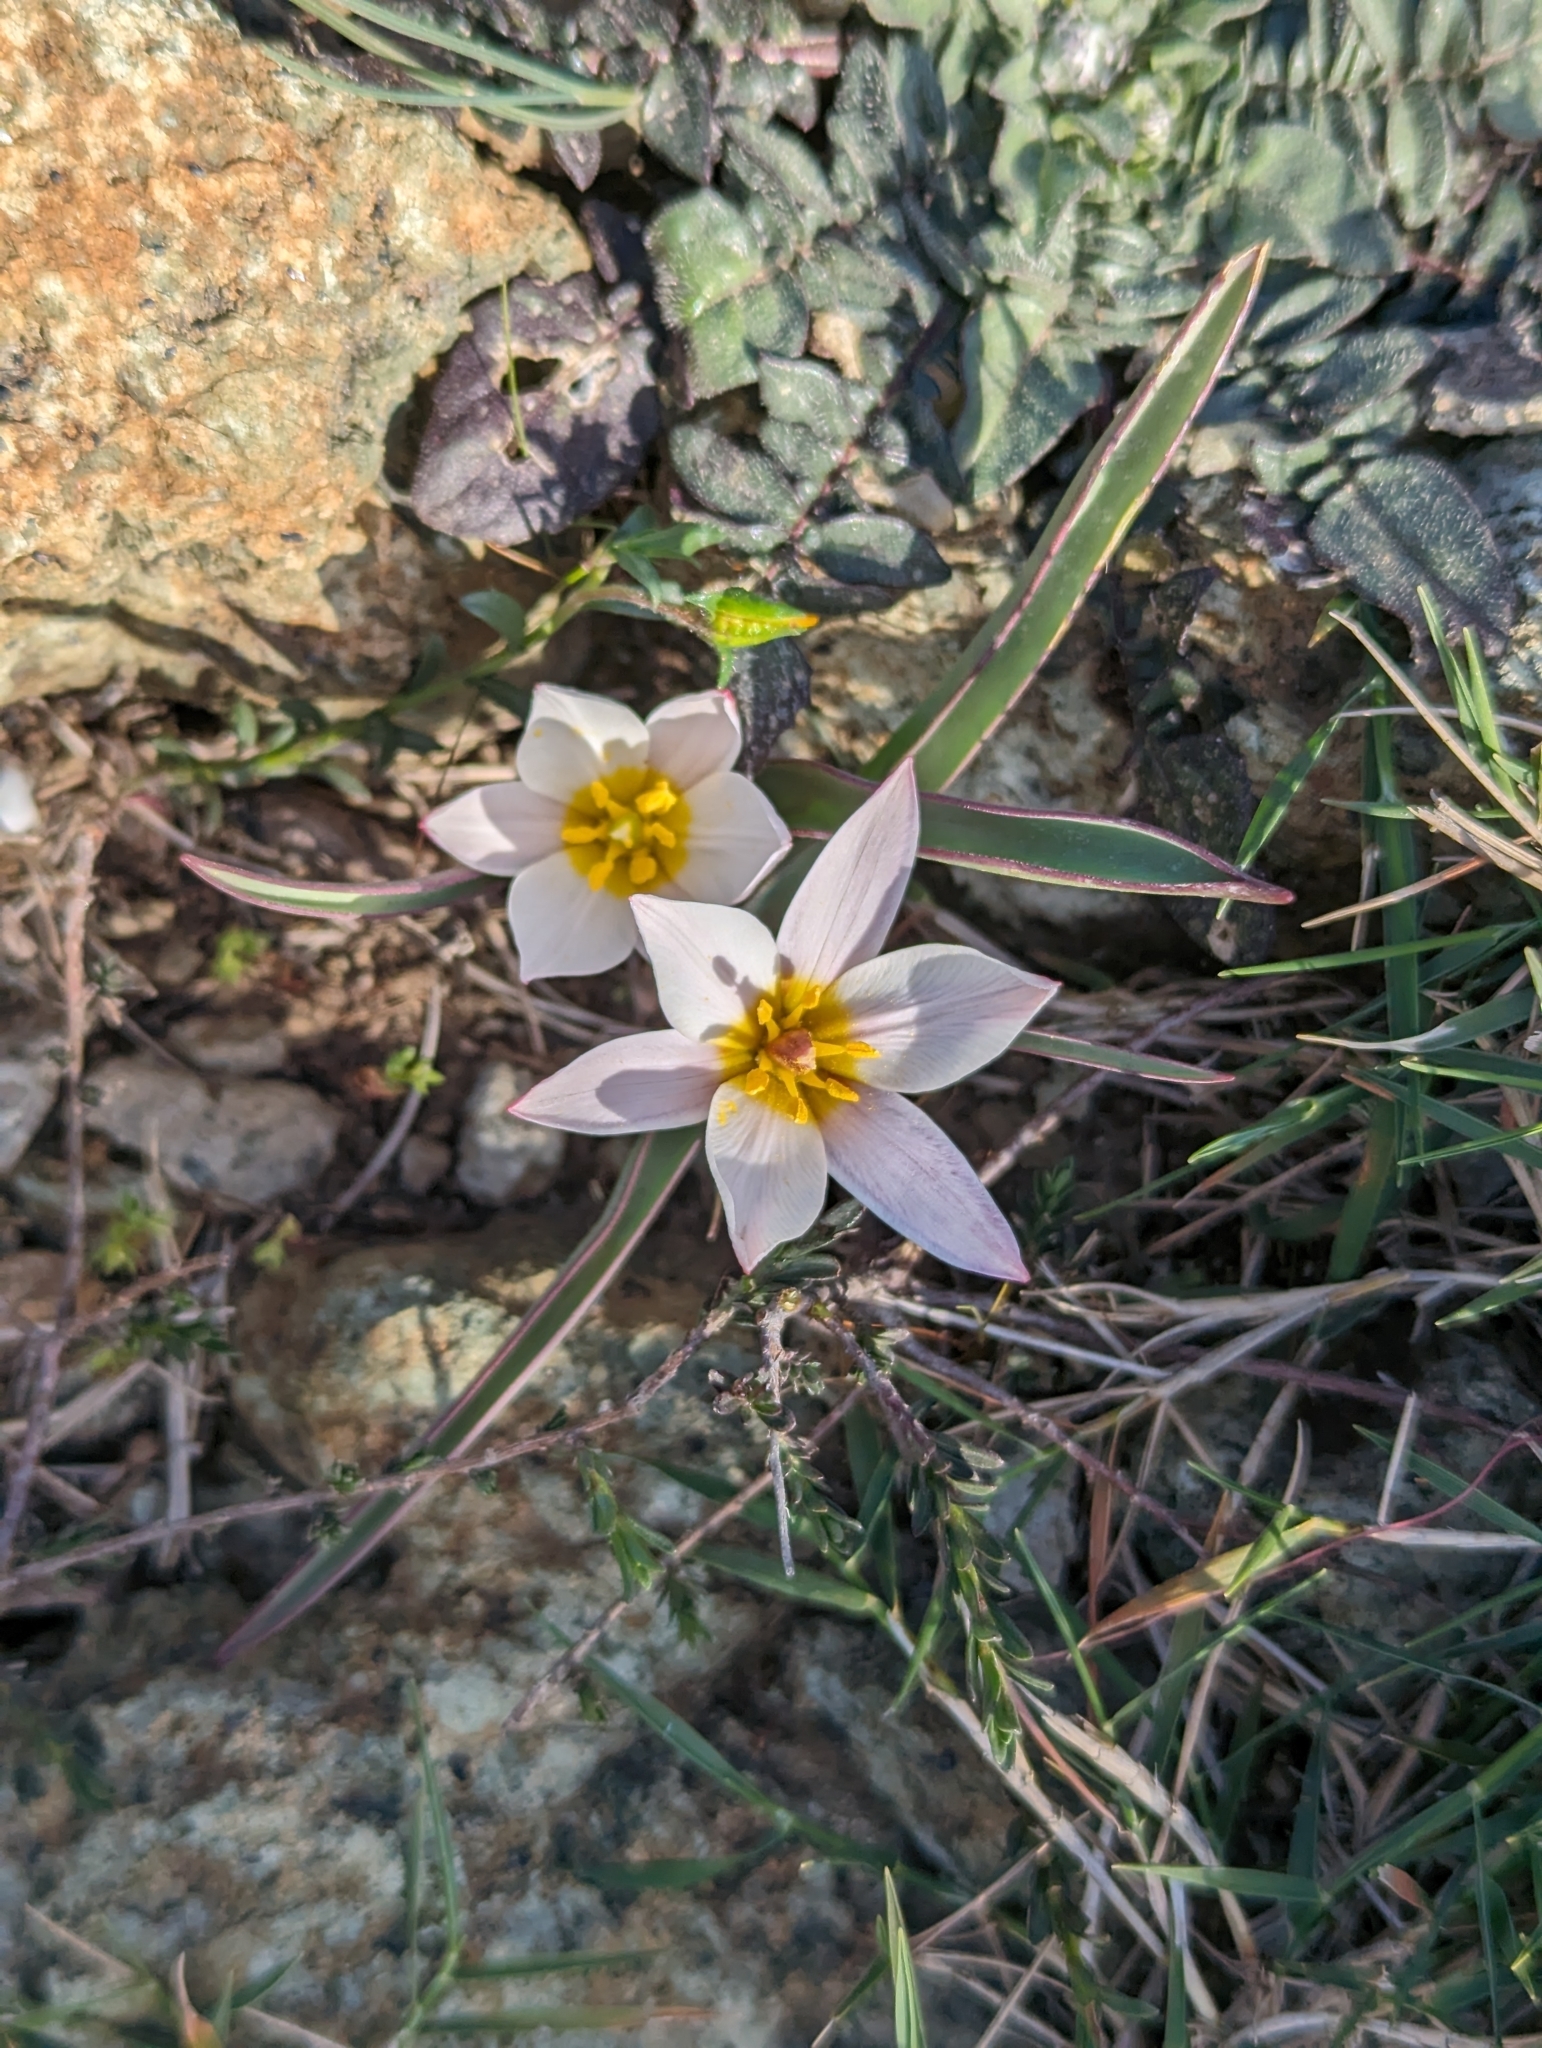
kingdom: Plantae
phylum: Tracheophyta
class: Liliopsida
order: Liliales
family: Liliaceae
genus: Tulipa
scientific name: Tulipa cretica
